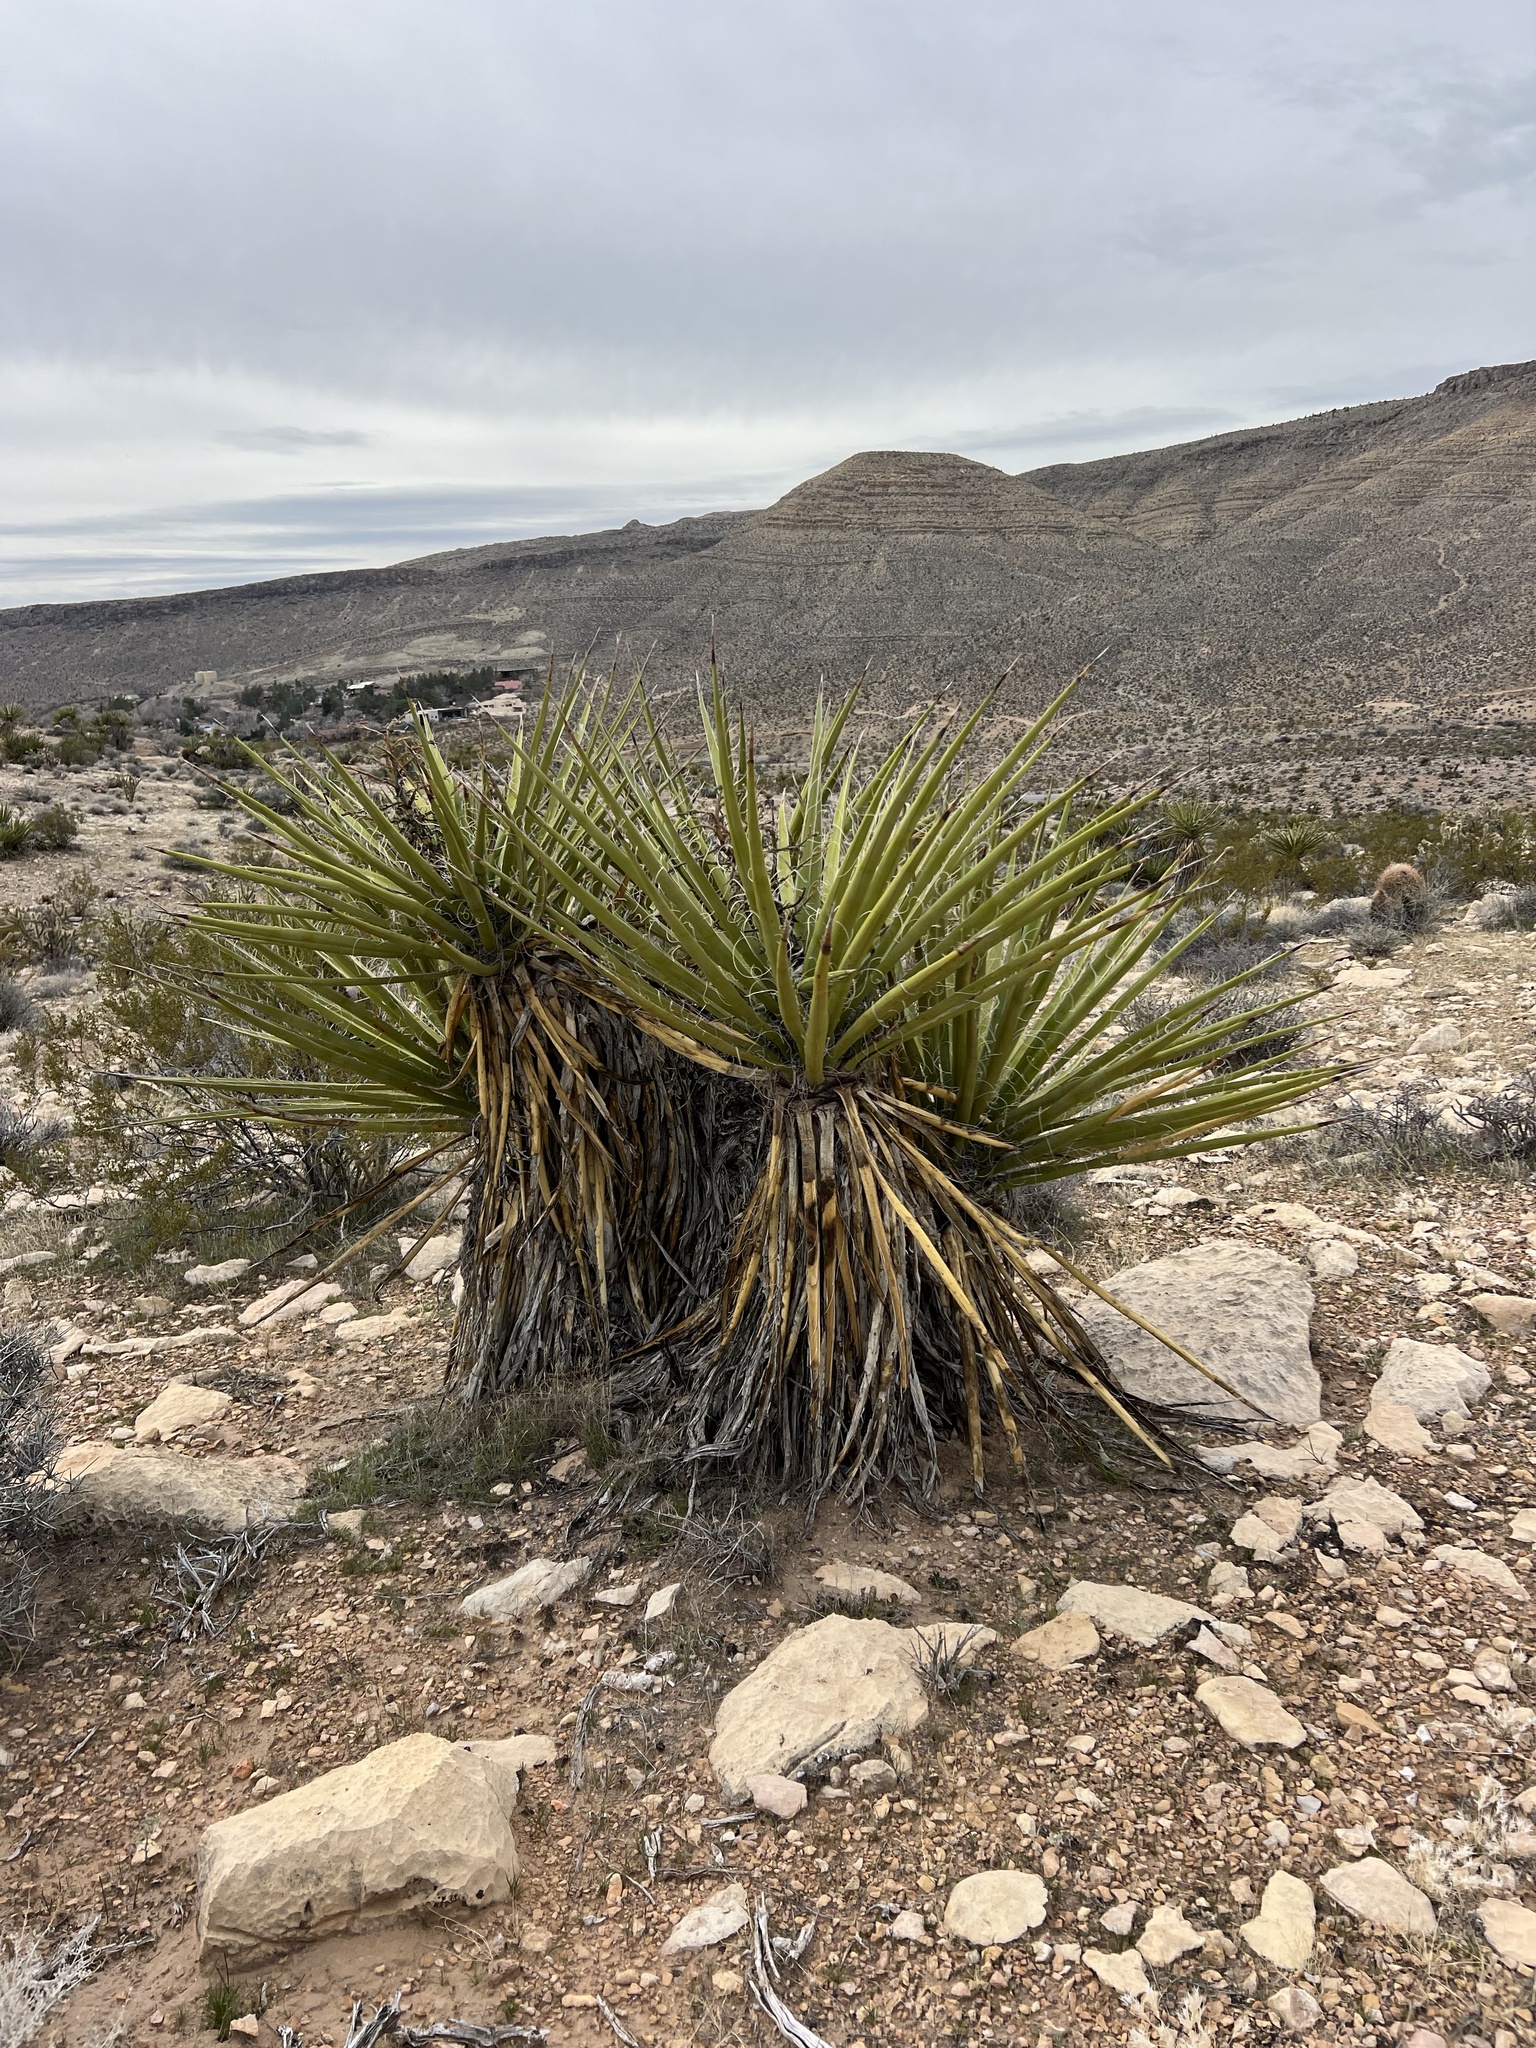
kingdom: Plantae
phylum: Tracheophyta
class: Liliopsida
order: Asparagales
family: Asparagaceae
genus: Yucca
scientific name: Yucca schidigera
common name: Mojave yucca
